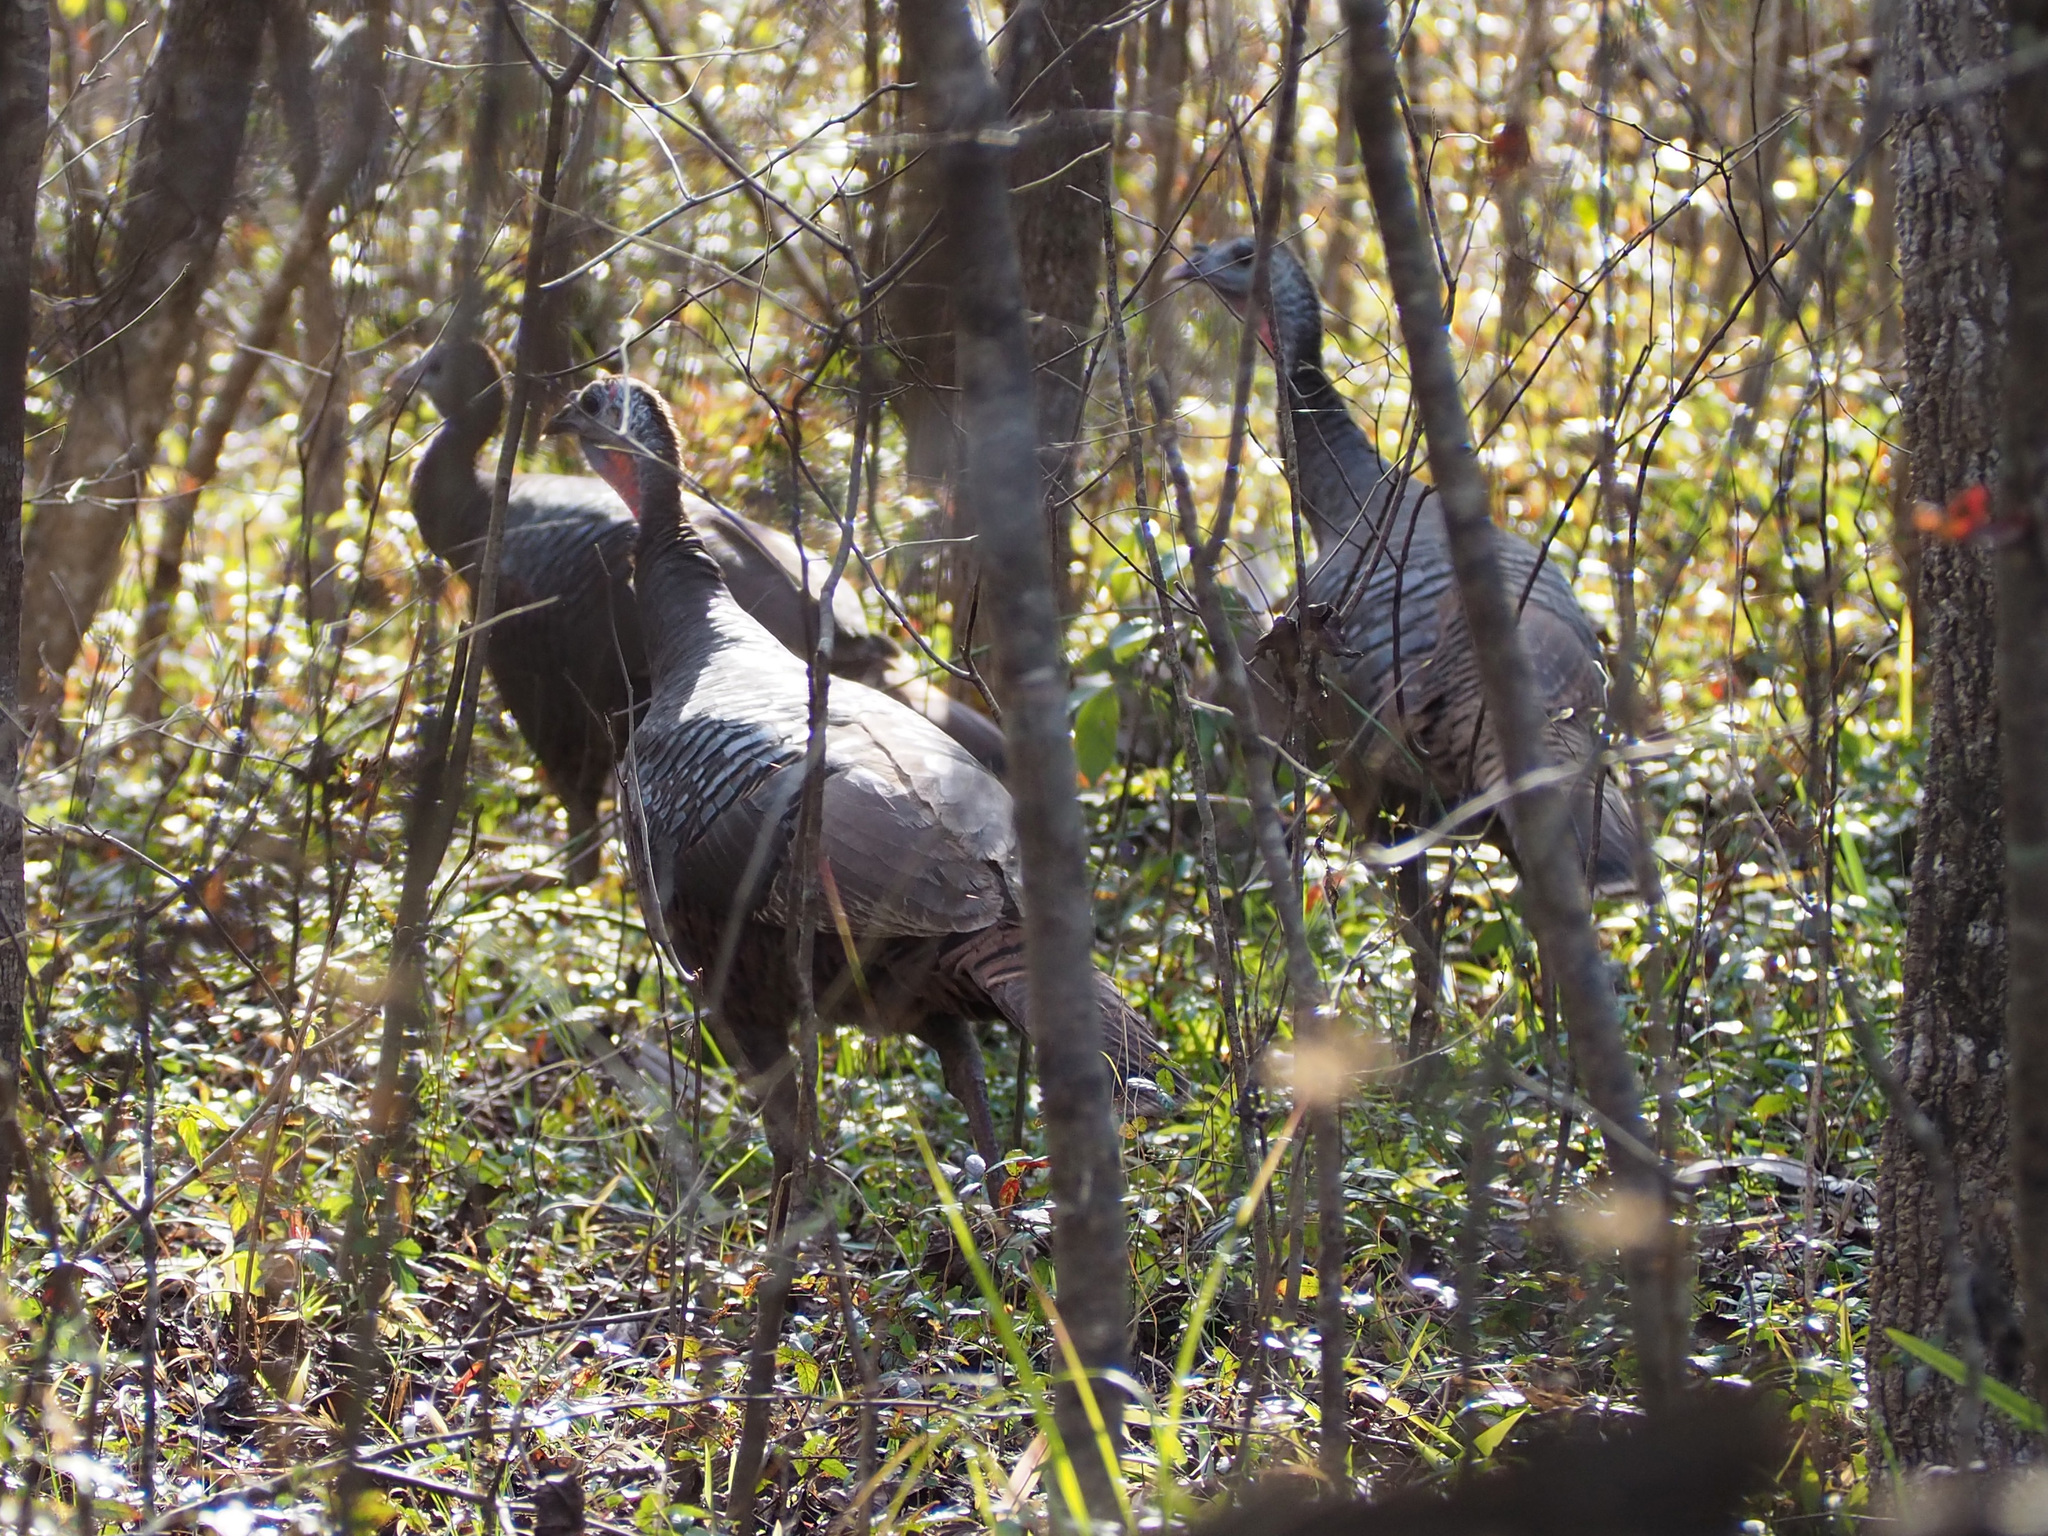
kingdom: Animalia
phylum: Chordata
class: Aves
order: Galliformes
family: Phasianidae
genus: Meleagris
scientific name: Meleagris gallopavo
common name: Wild turkey
